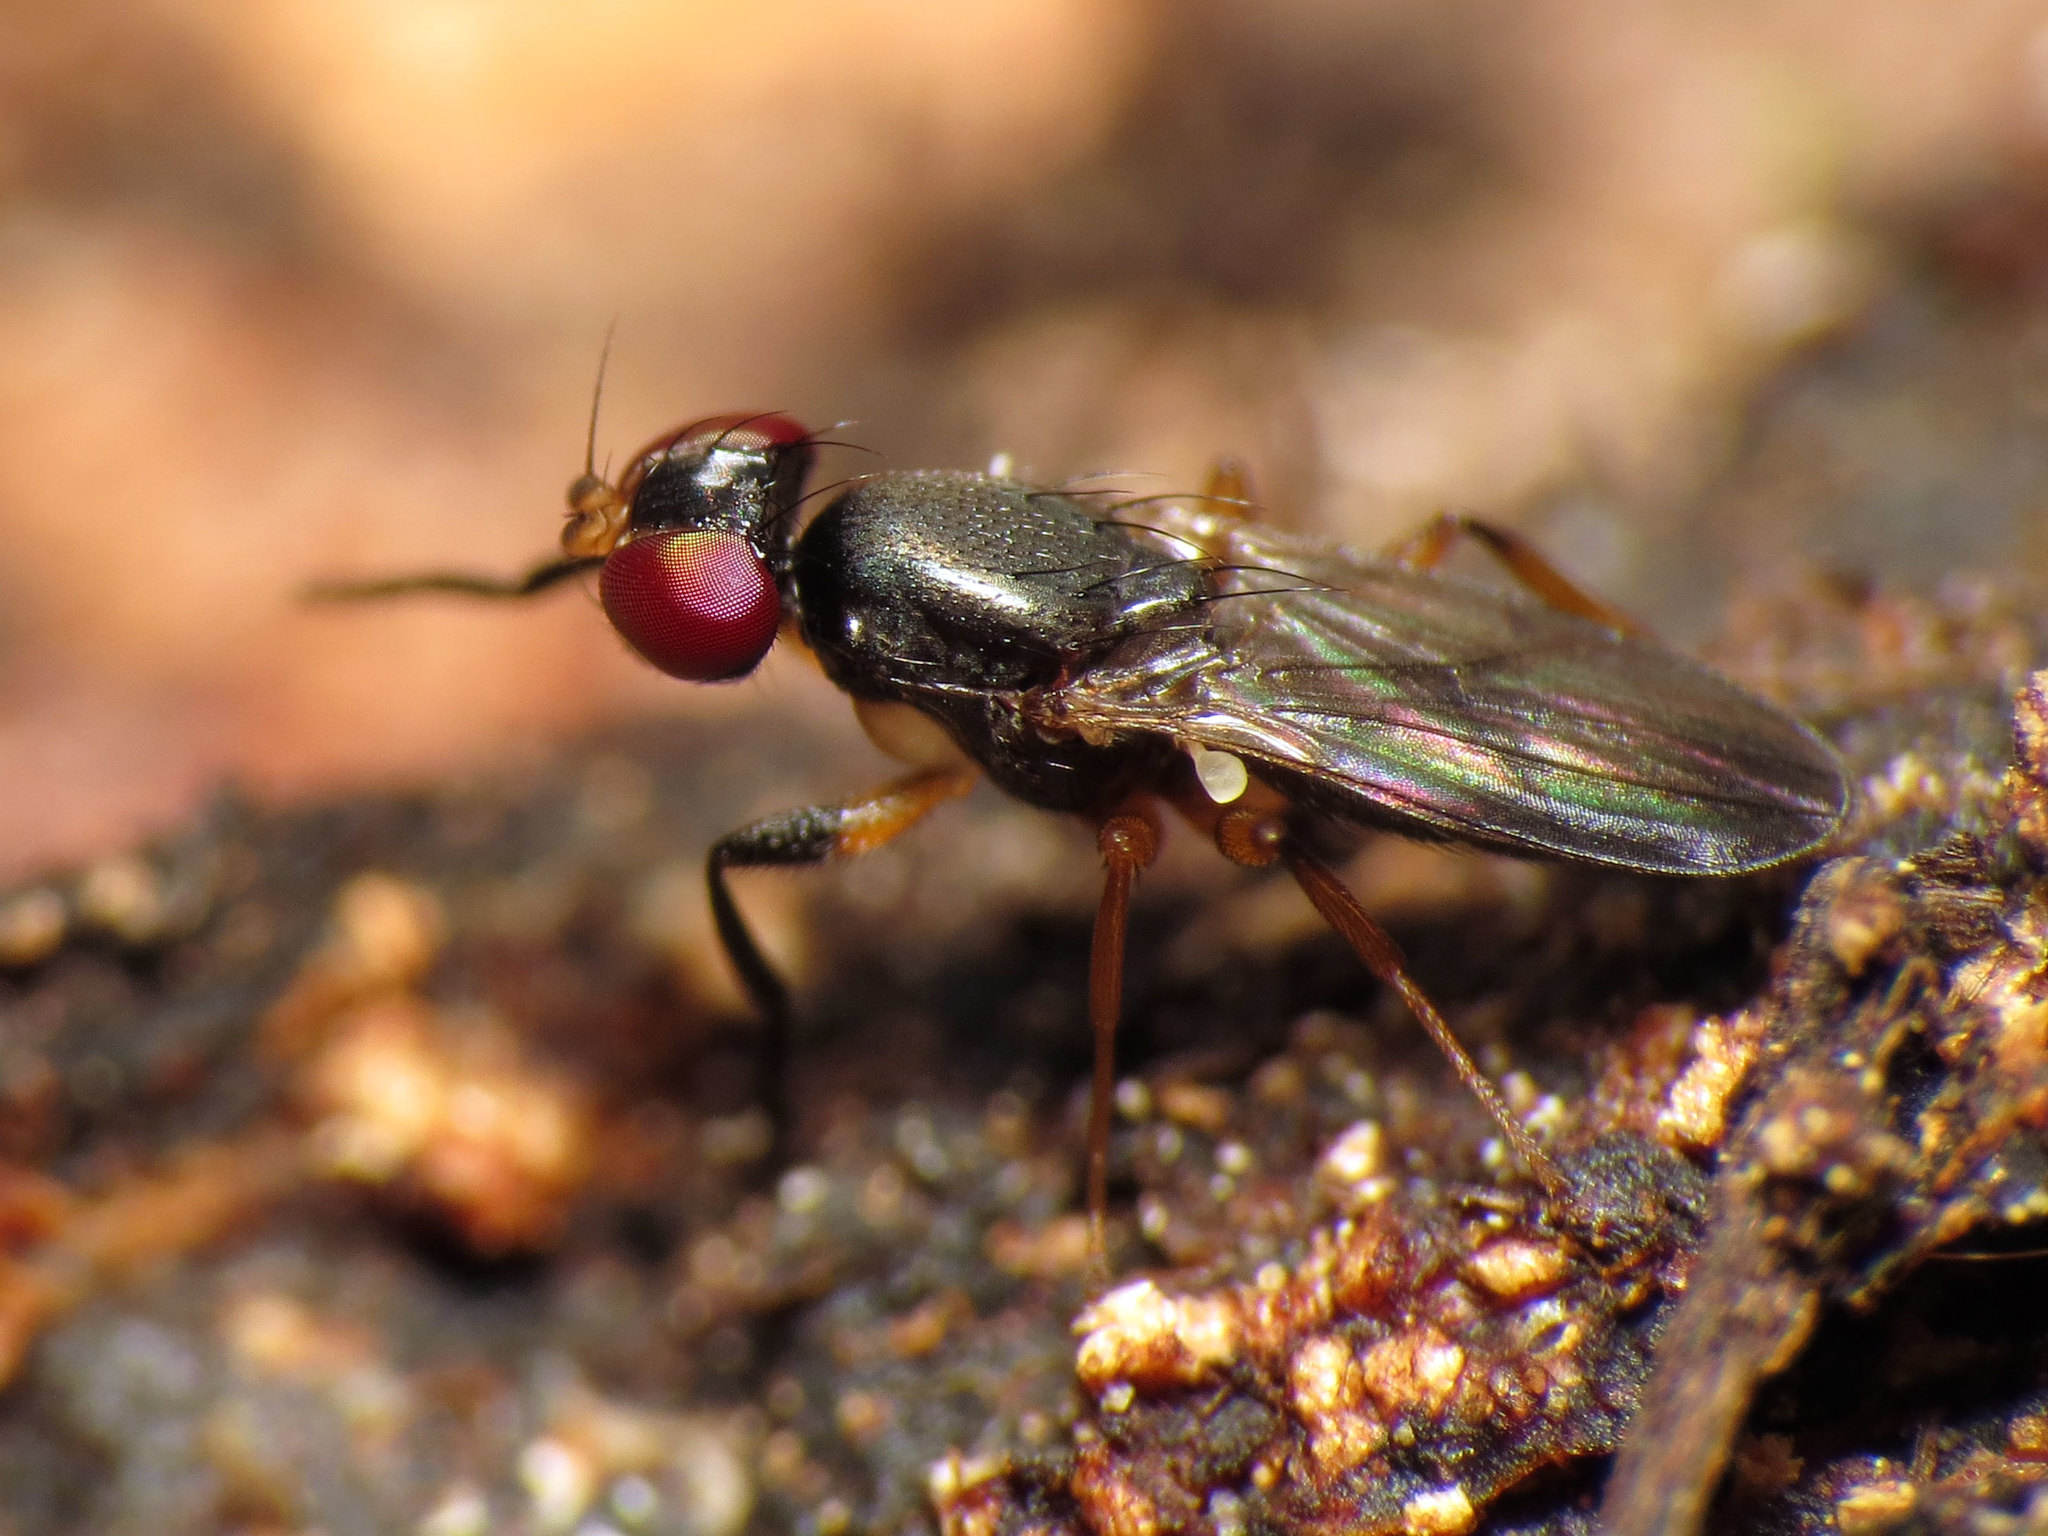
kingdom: Animalia
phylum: Arthropoda
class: Insecta
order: Diptera
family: Clusiidae
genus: Heteromeringia
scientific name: Heteromeringia nitida
